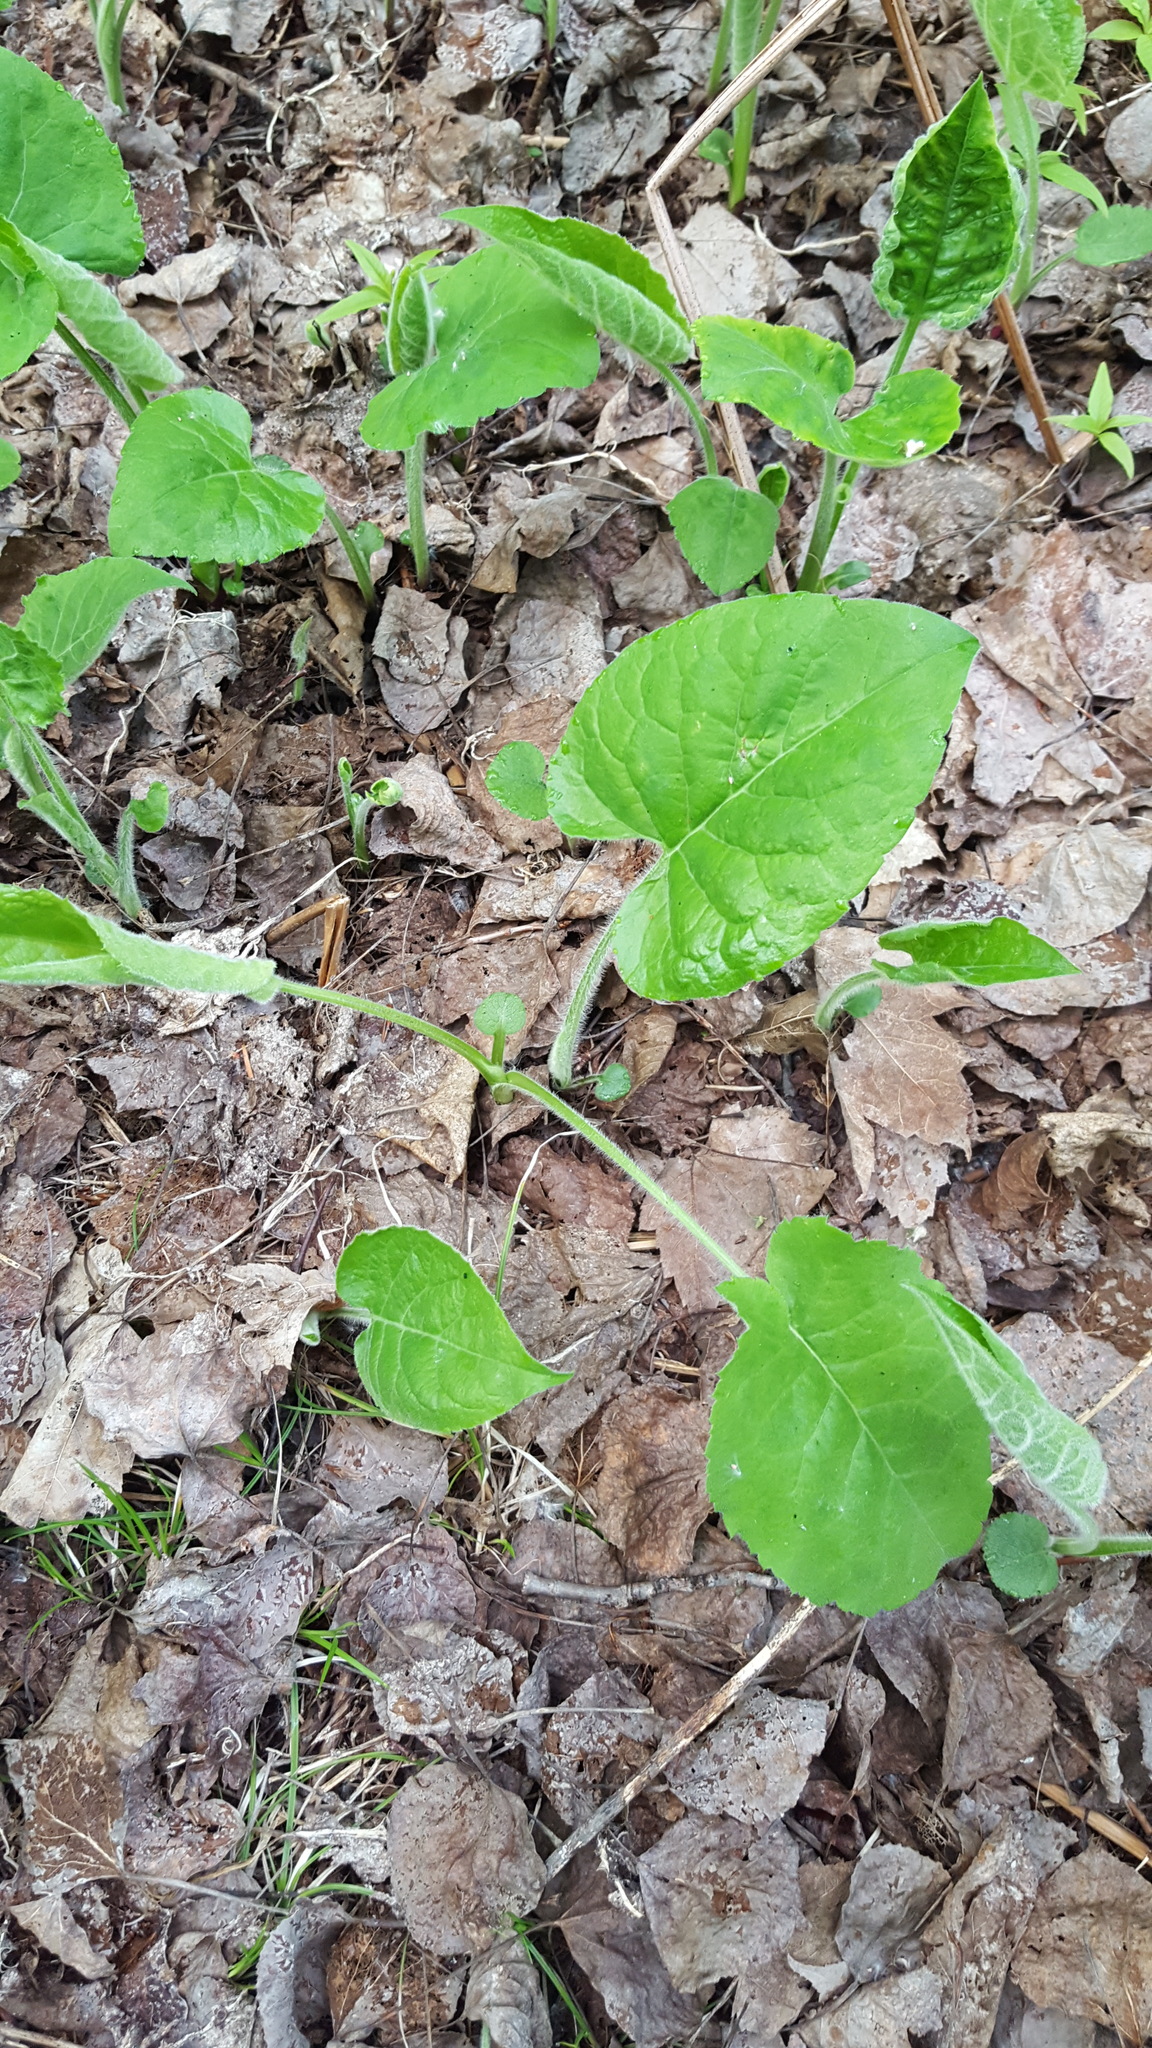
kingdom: Plantae
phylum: Tracheophyta
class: Magnoliopsida
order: Asterales
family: Asteraceae
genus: Eurybia
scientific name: Eurybia macrophylla
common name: Big-leaved aster
